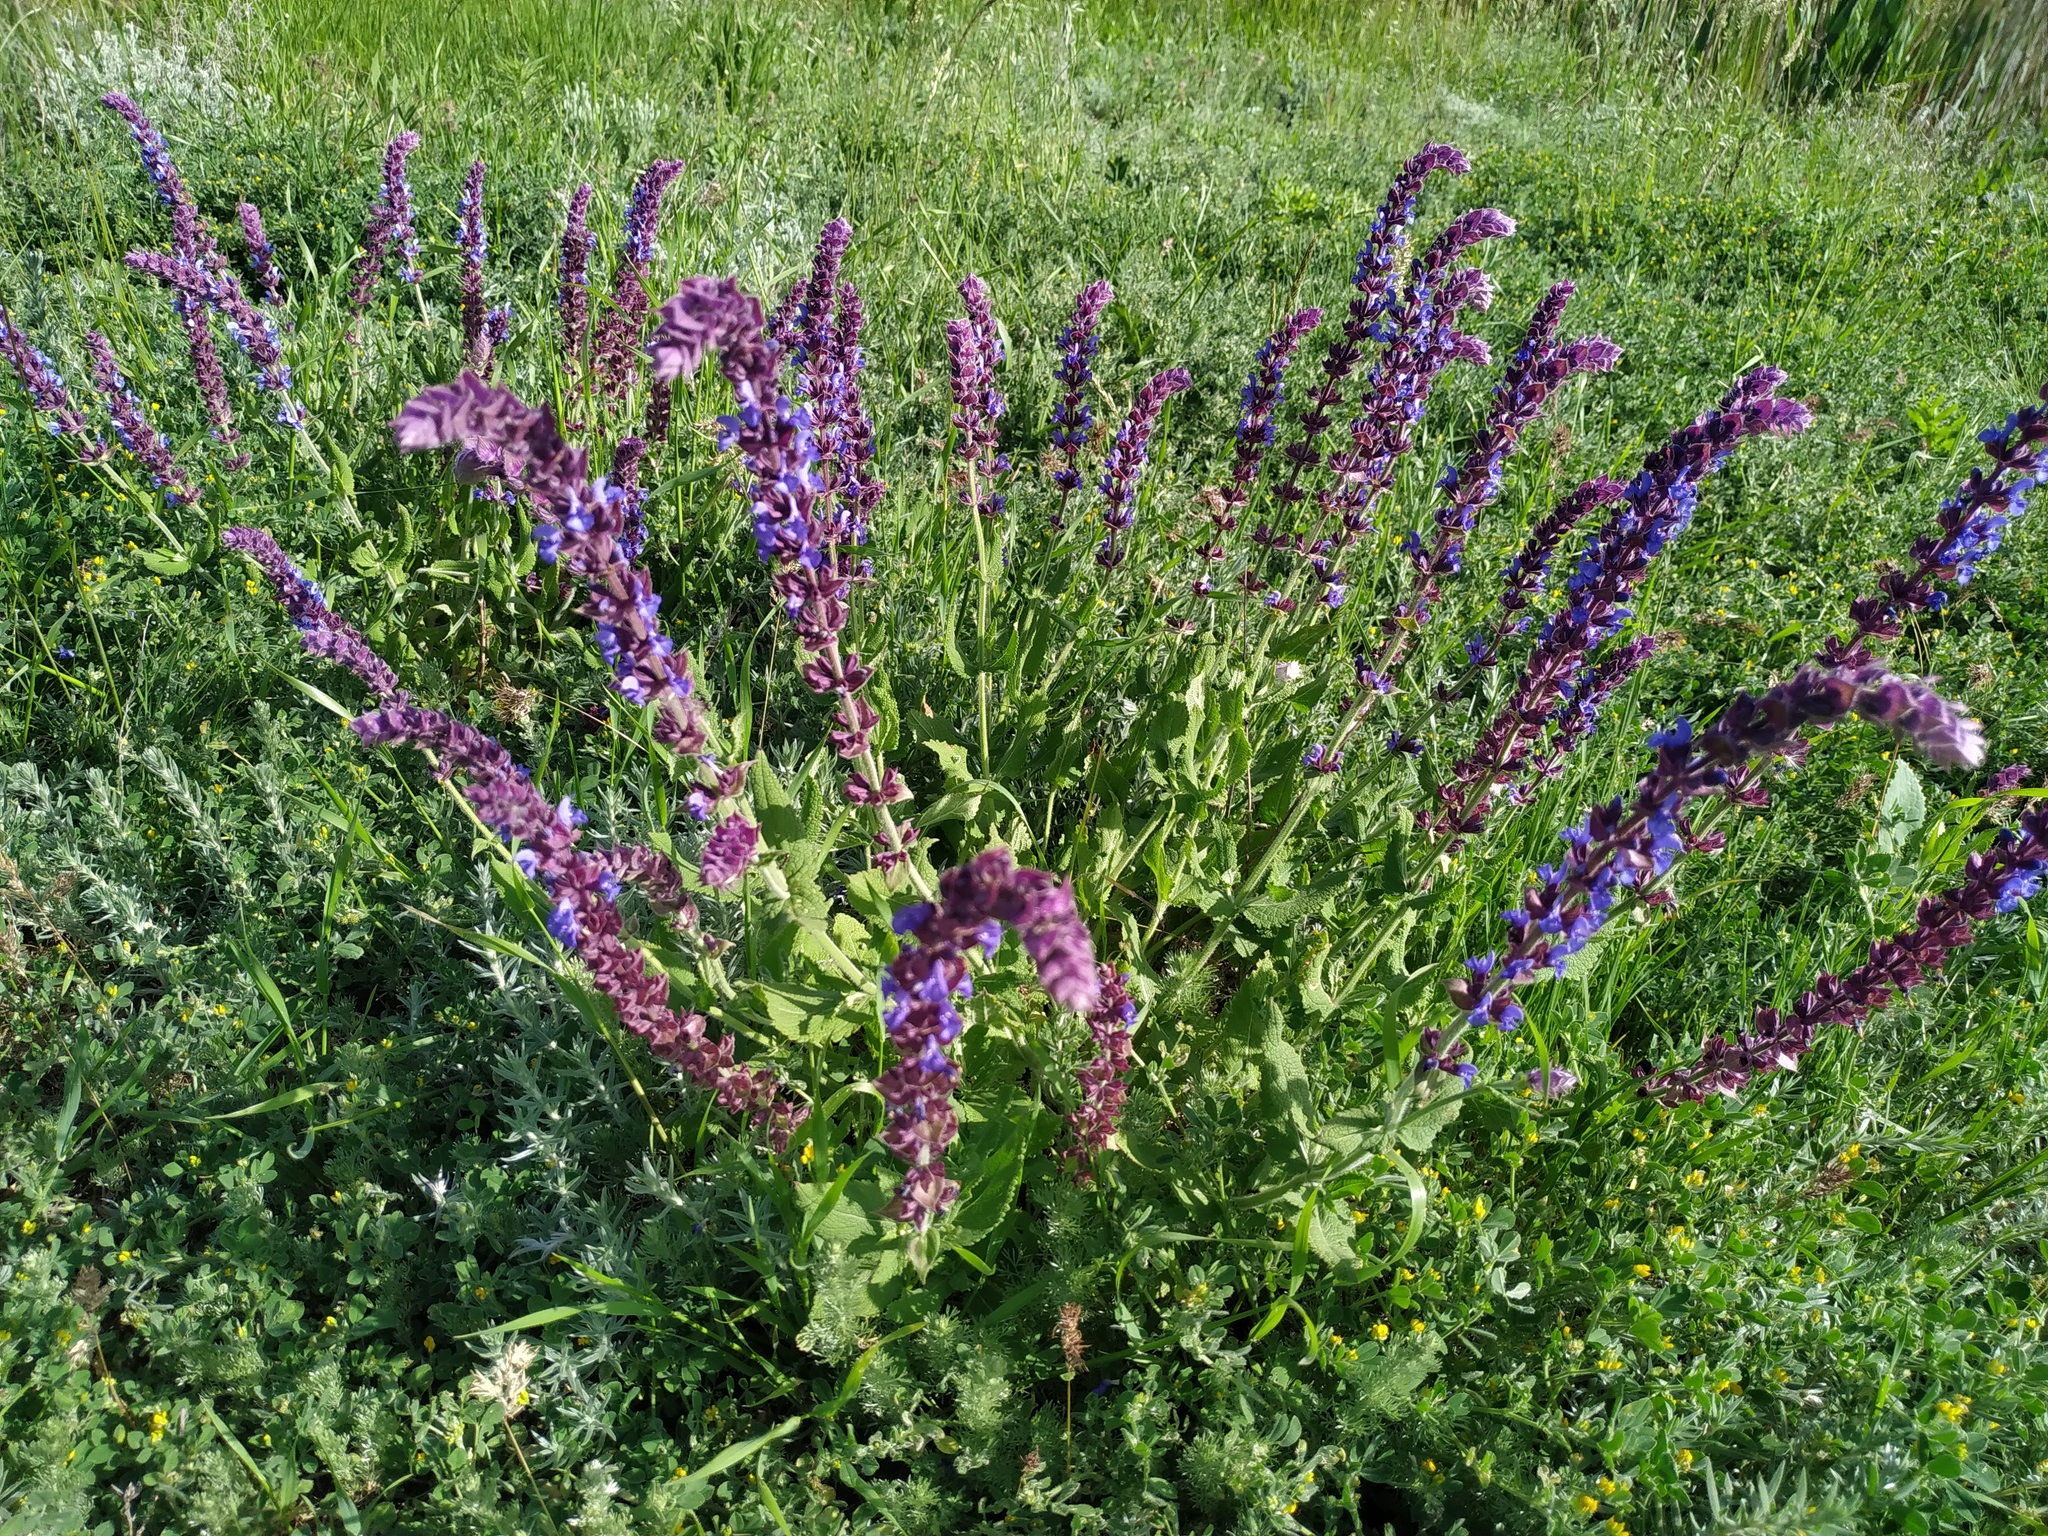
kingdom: Plantae
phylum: Tracheophyta
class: Magnoliopsida
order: Lamiales
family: Lamiaceae
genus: Salvia
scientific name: Salvia nemorosa
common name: Balkan clary
